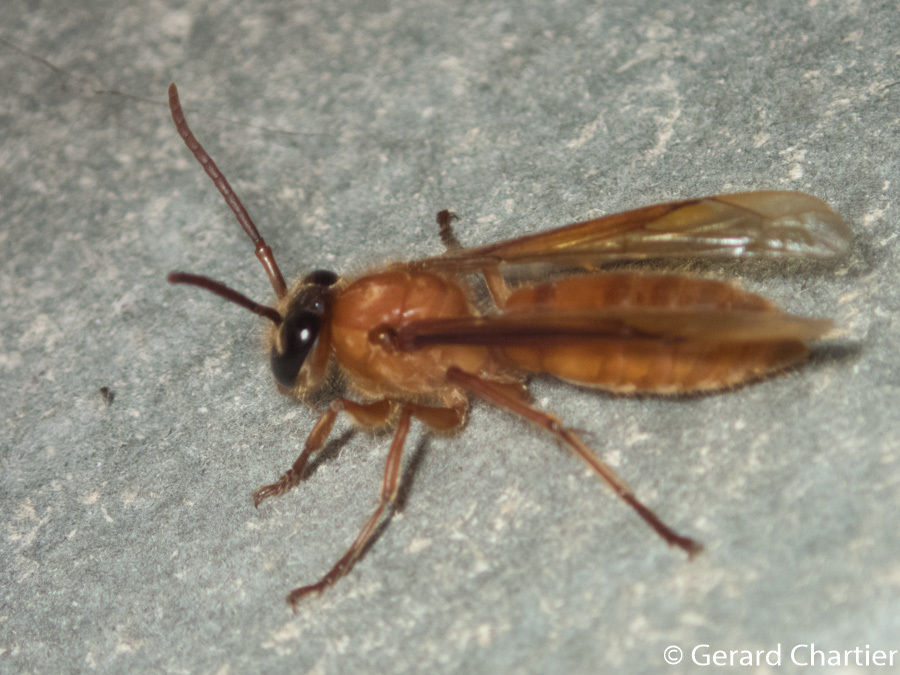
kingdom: Animalia
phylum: Arthropoda
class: Insecta
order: Hymenoptera
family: Vespidae
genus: Provespa
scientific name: Provespa barthelemyi
